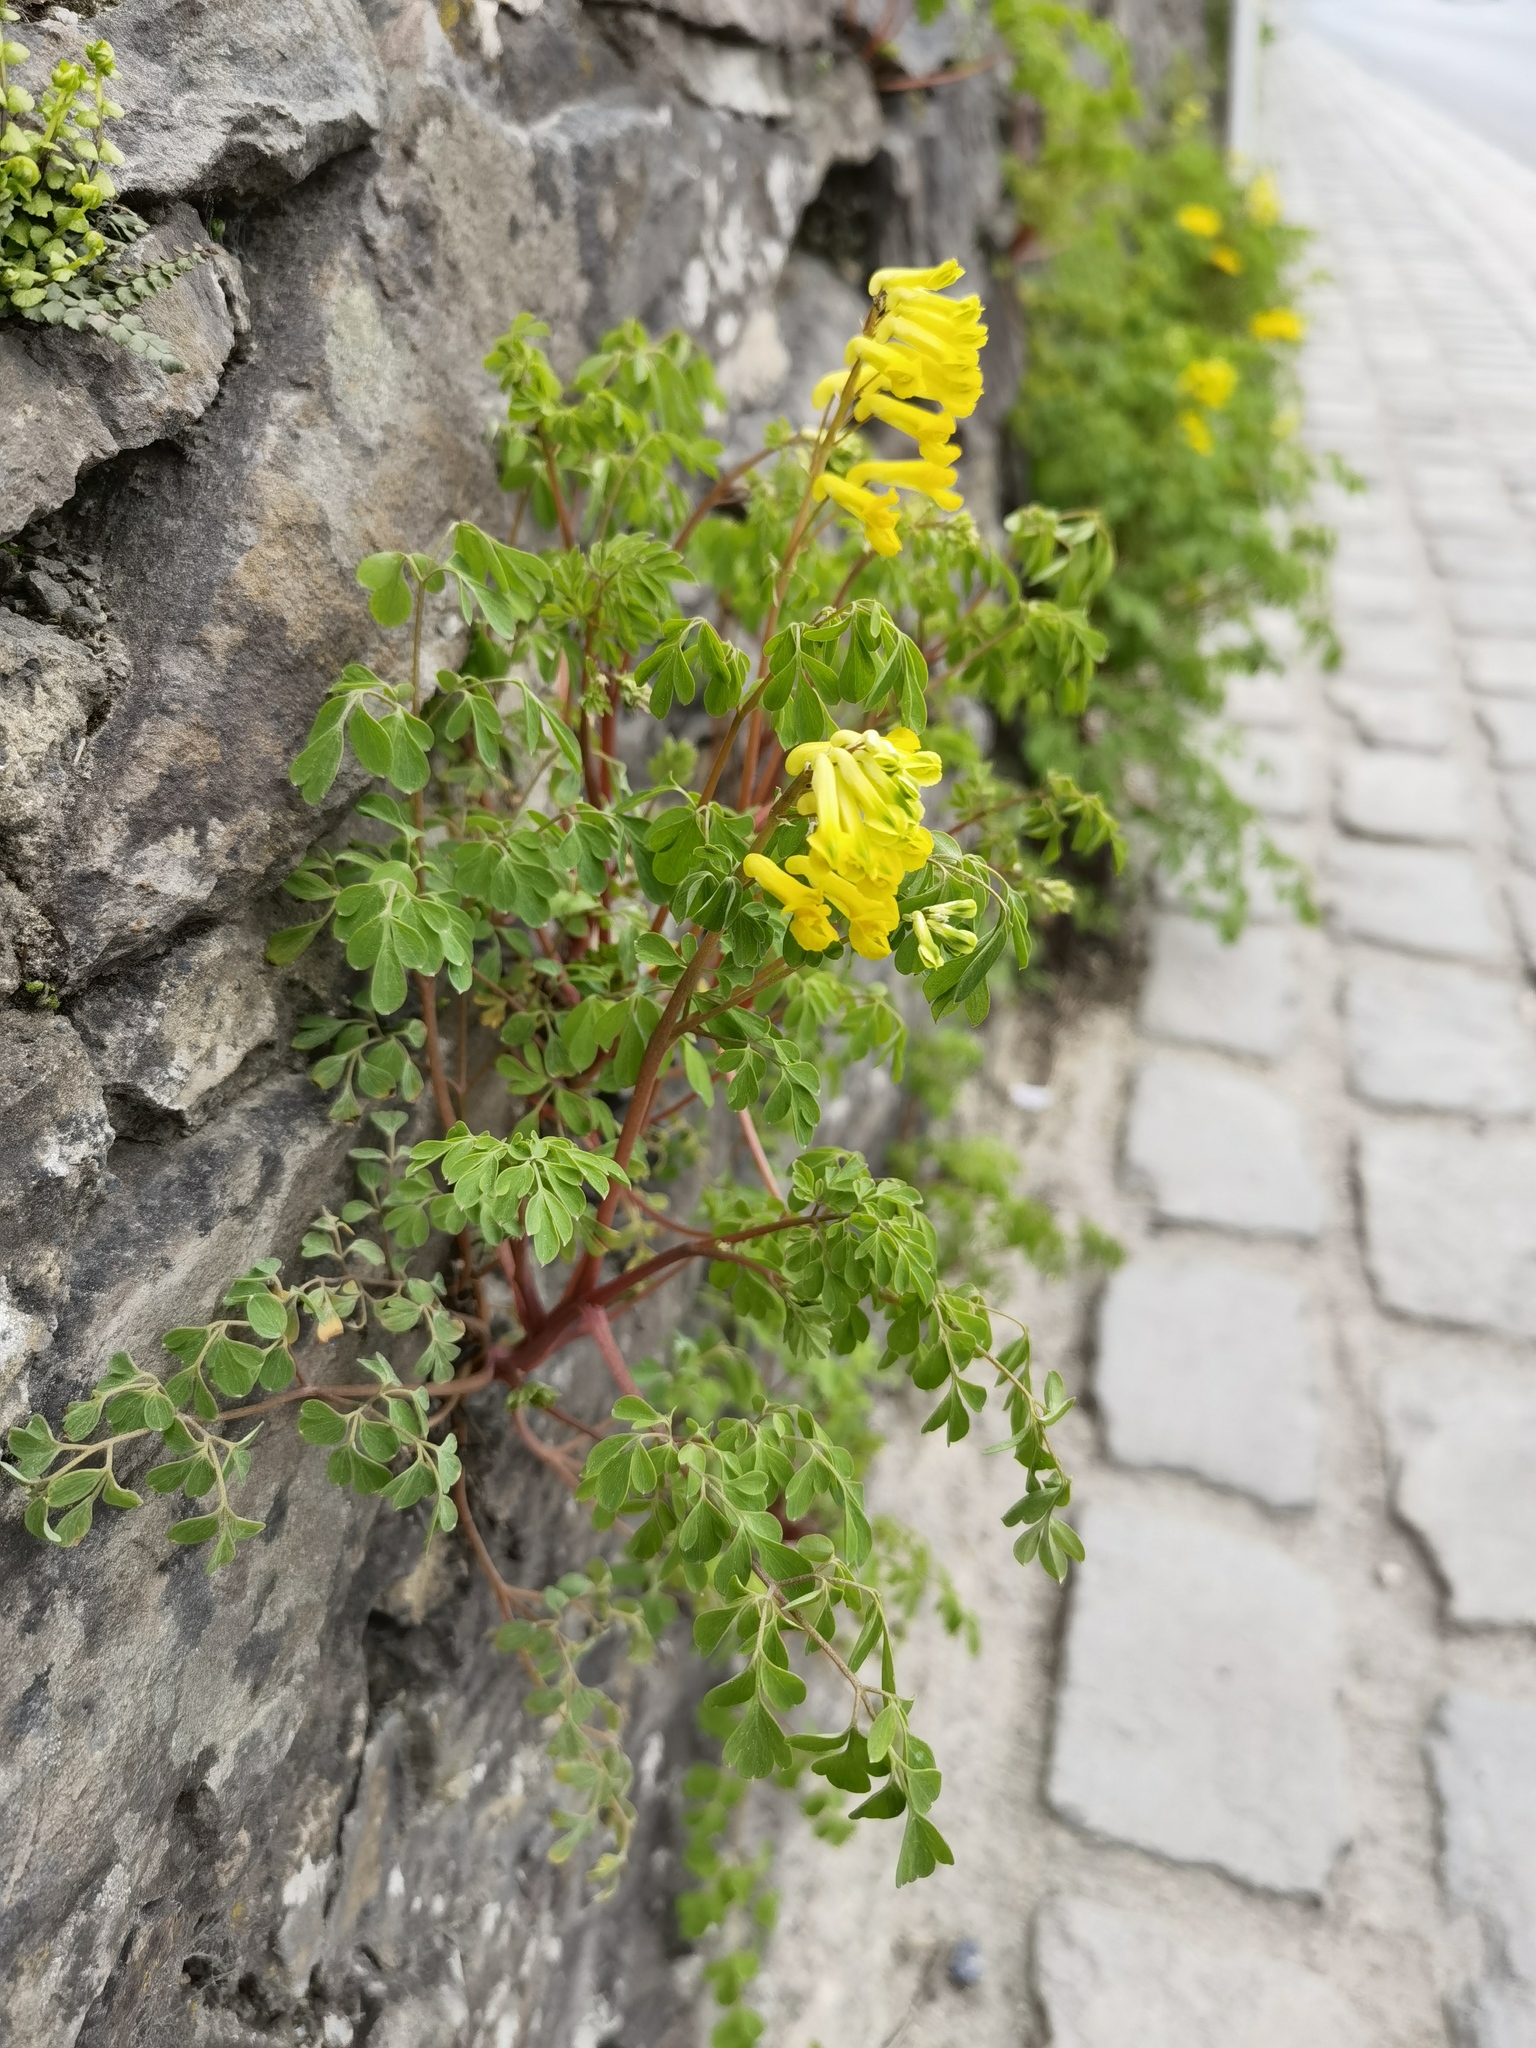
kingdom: Plantae
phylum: Tracheophyta
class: Magnoliopsida
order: Ranunculales
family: Papaveraceae
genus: Pseudofumaria
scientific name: Pseudofumaria lutea
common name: Yellow corydalis
